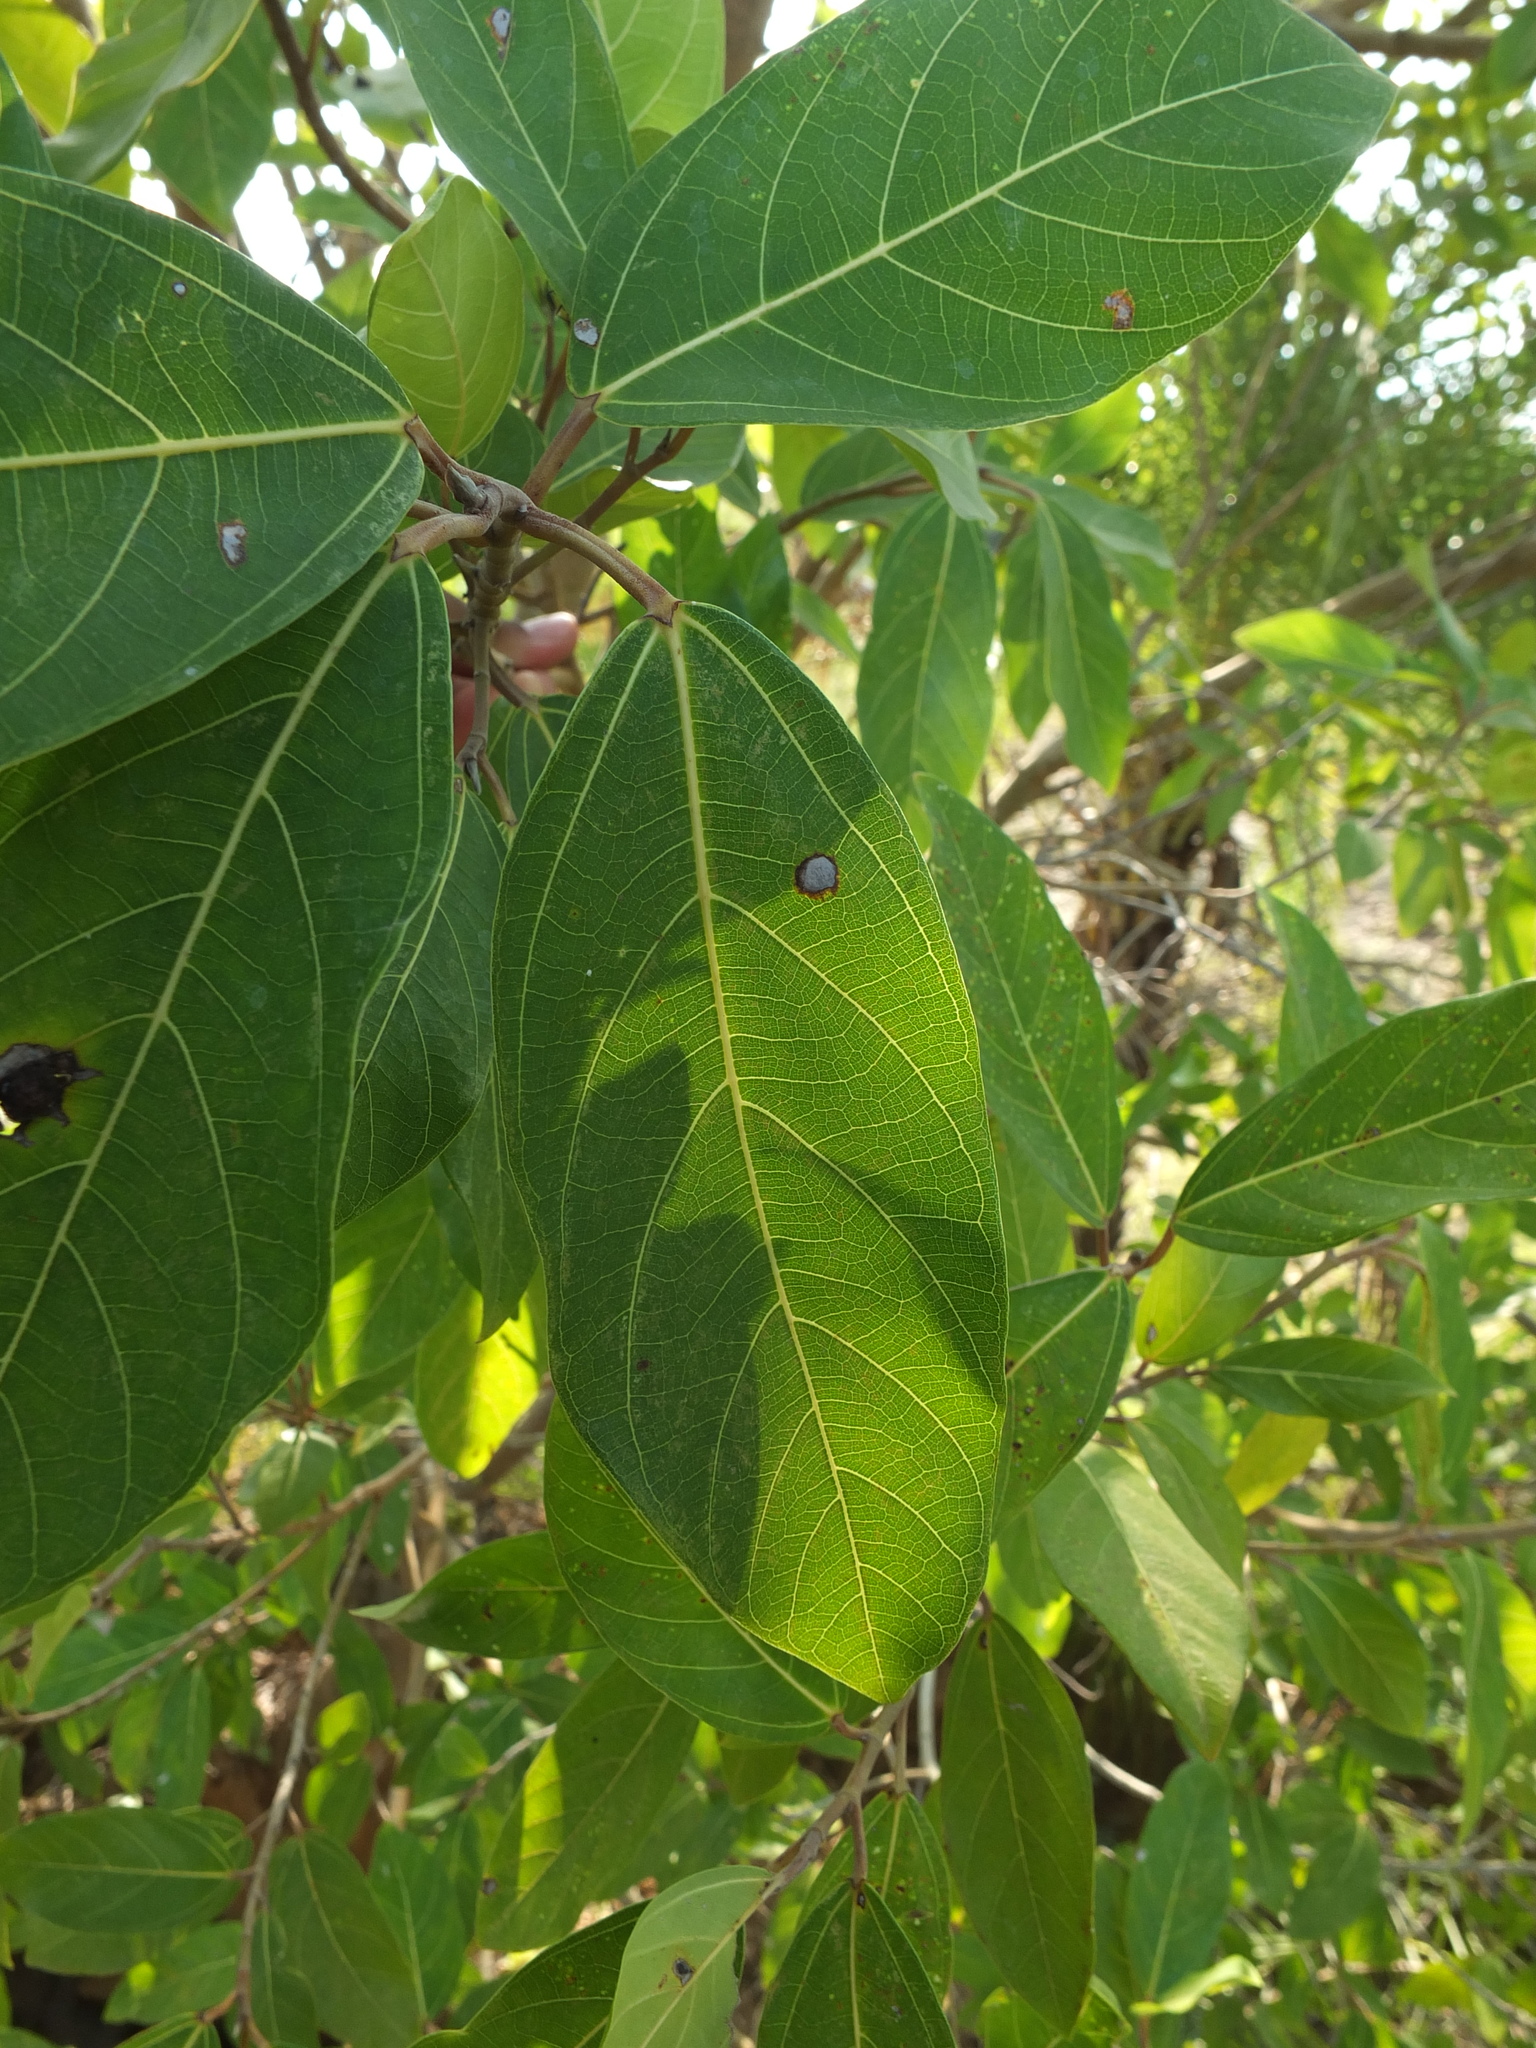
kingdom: Plantae
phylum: Tracheophyta
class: Magnoliopsida
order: Rosales
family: Moraceae
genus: Ficus
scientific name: Ficus racemosa
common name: Cluster fig
